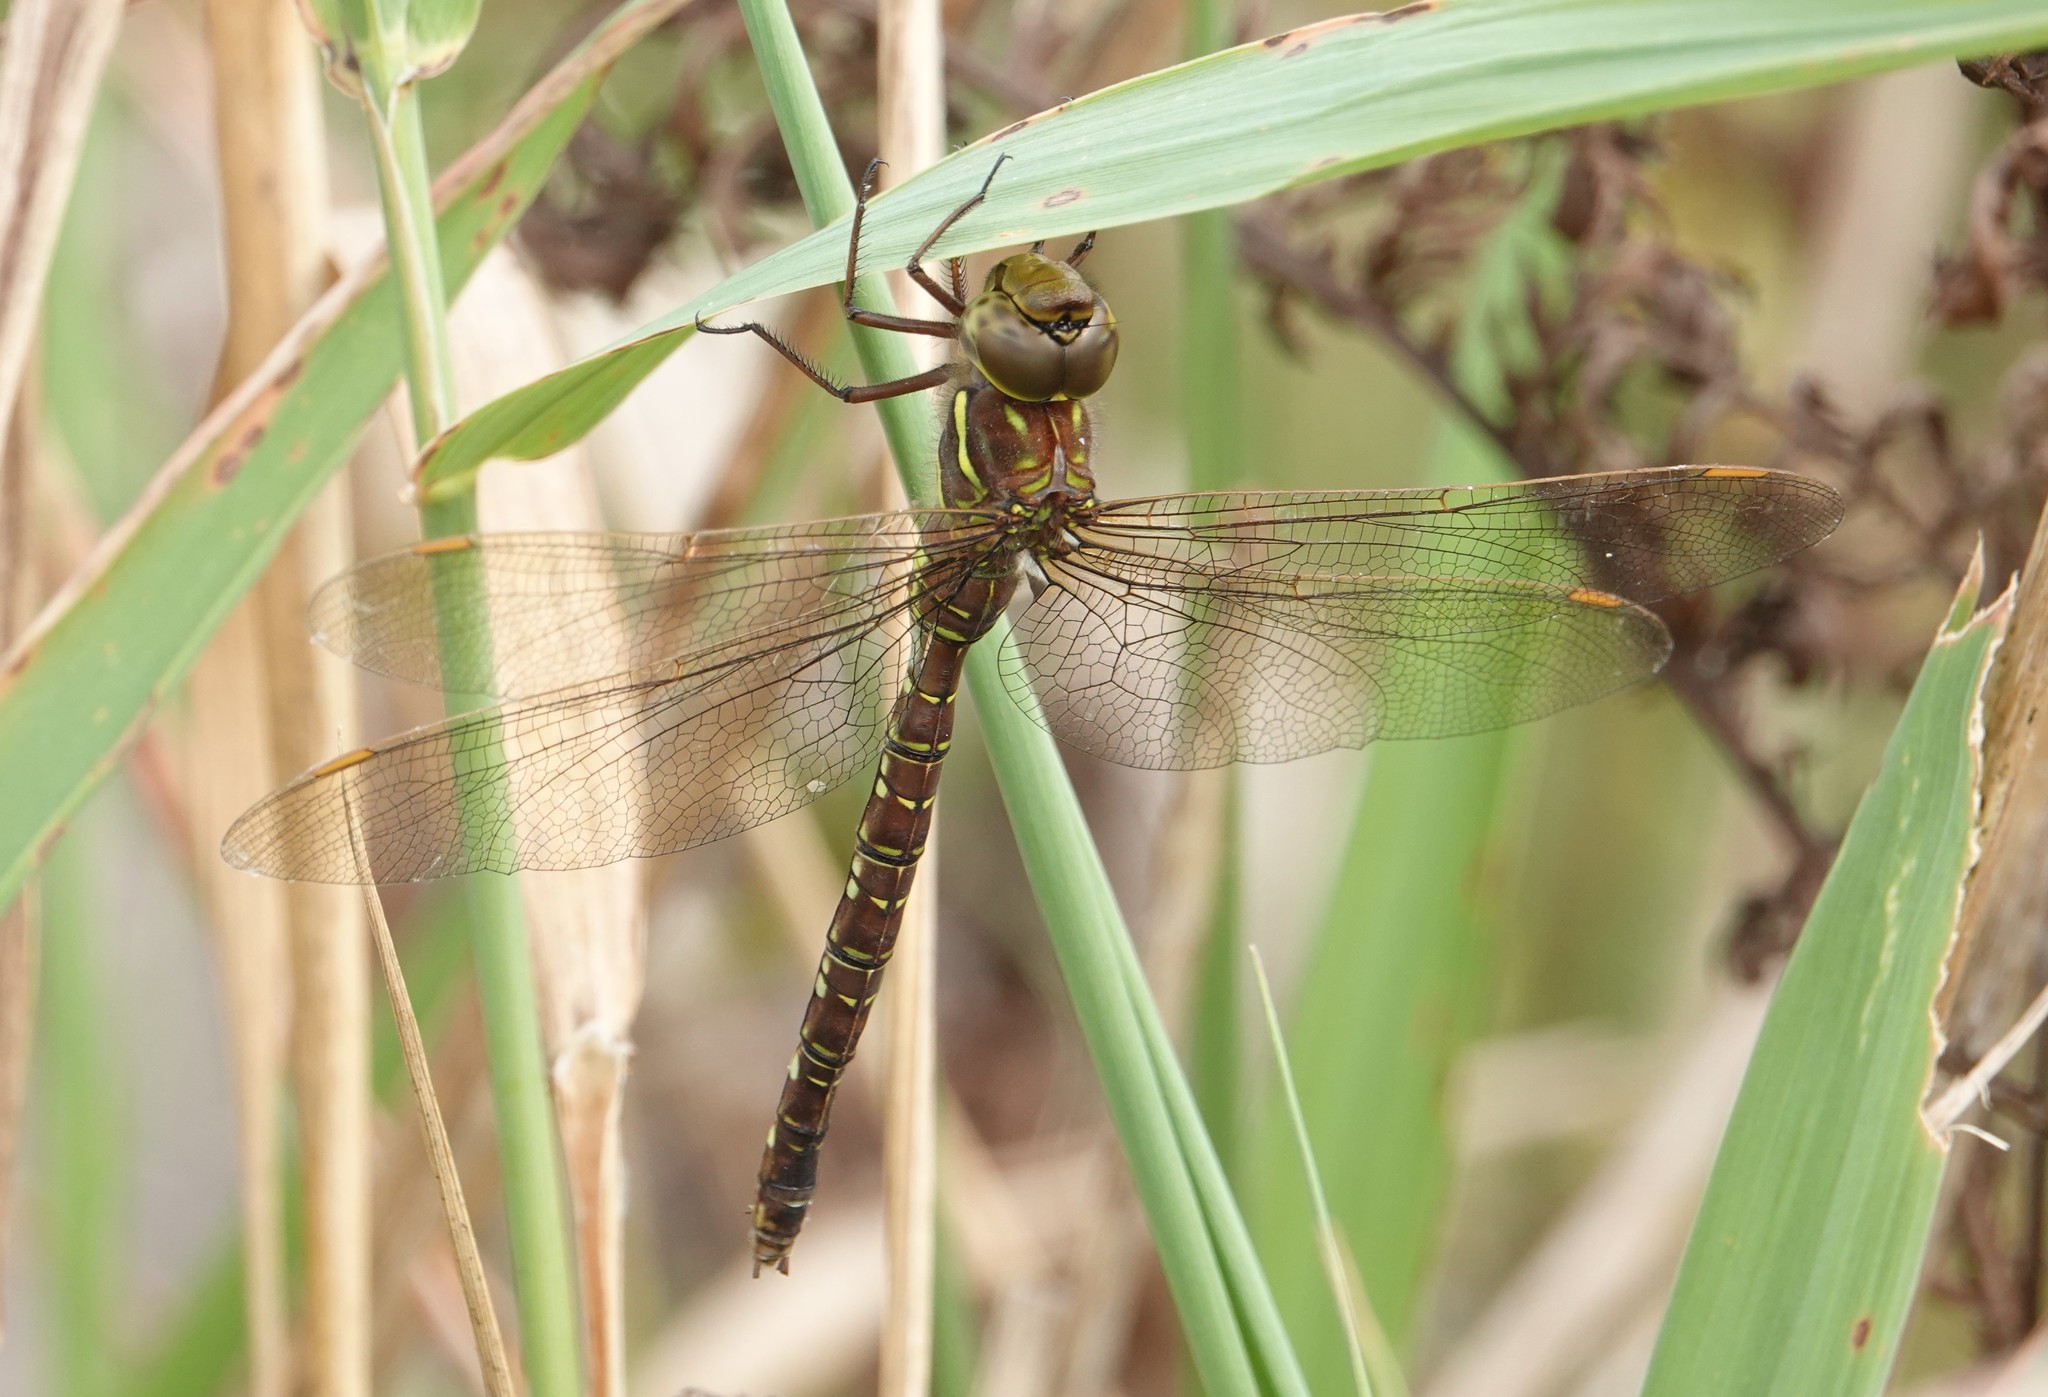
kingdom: Animalia
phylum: Arthropoda
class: Insecta
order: Odonata
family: Aeshnidae
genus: Aeshna
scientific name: Aeshna umbrosa
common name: Shadow darner
